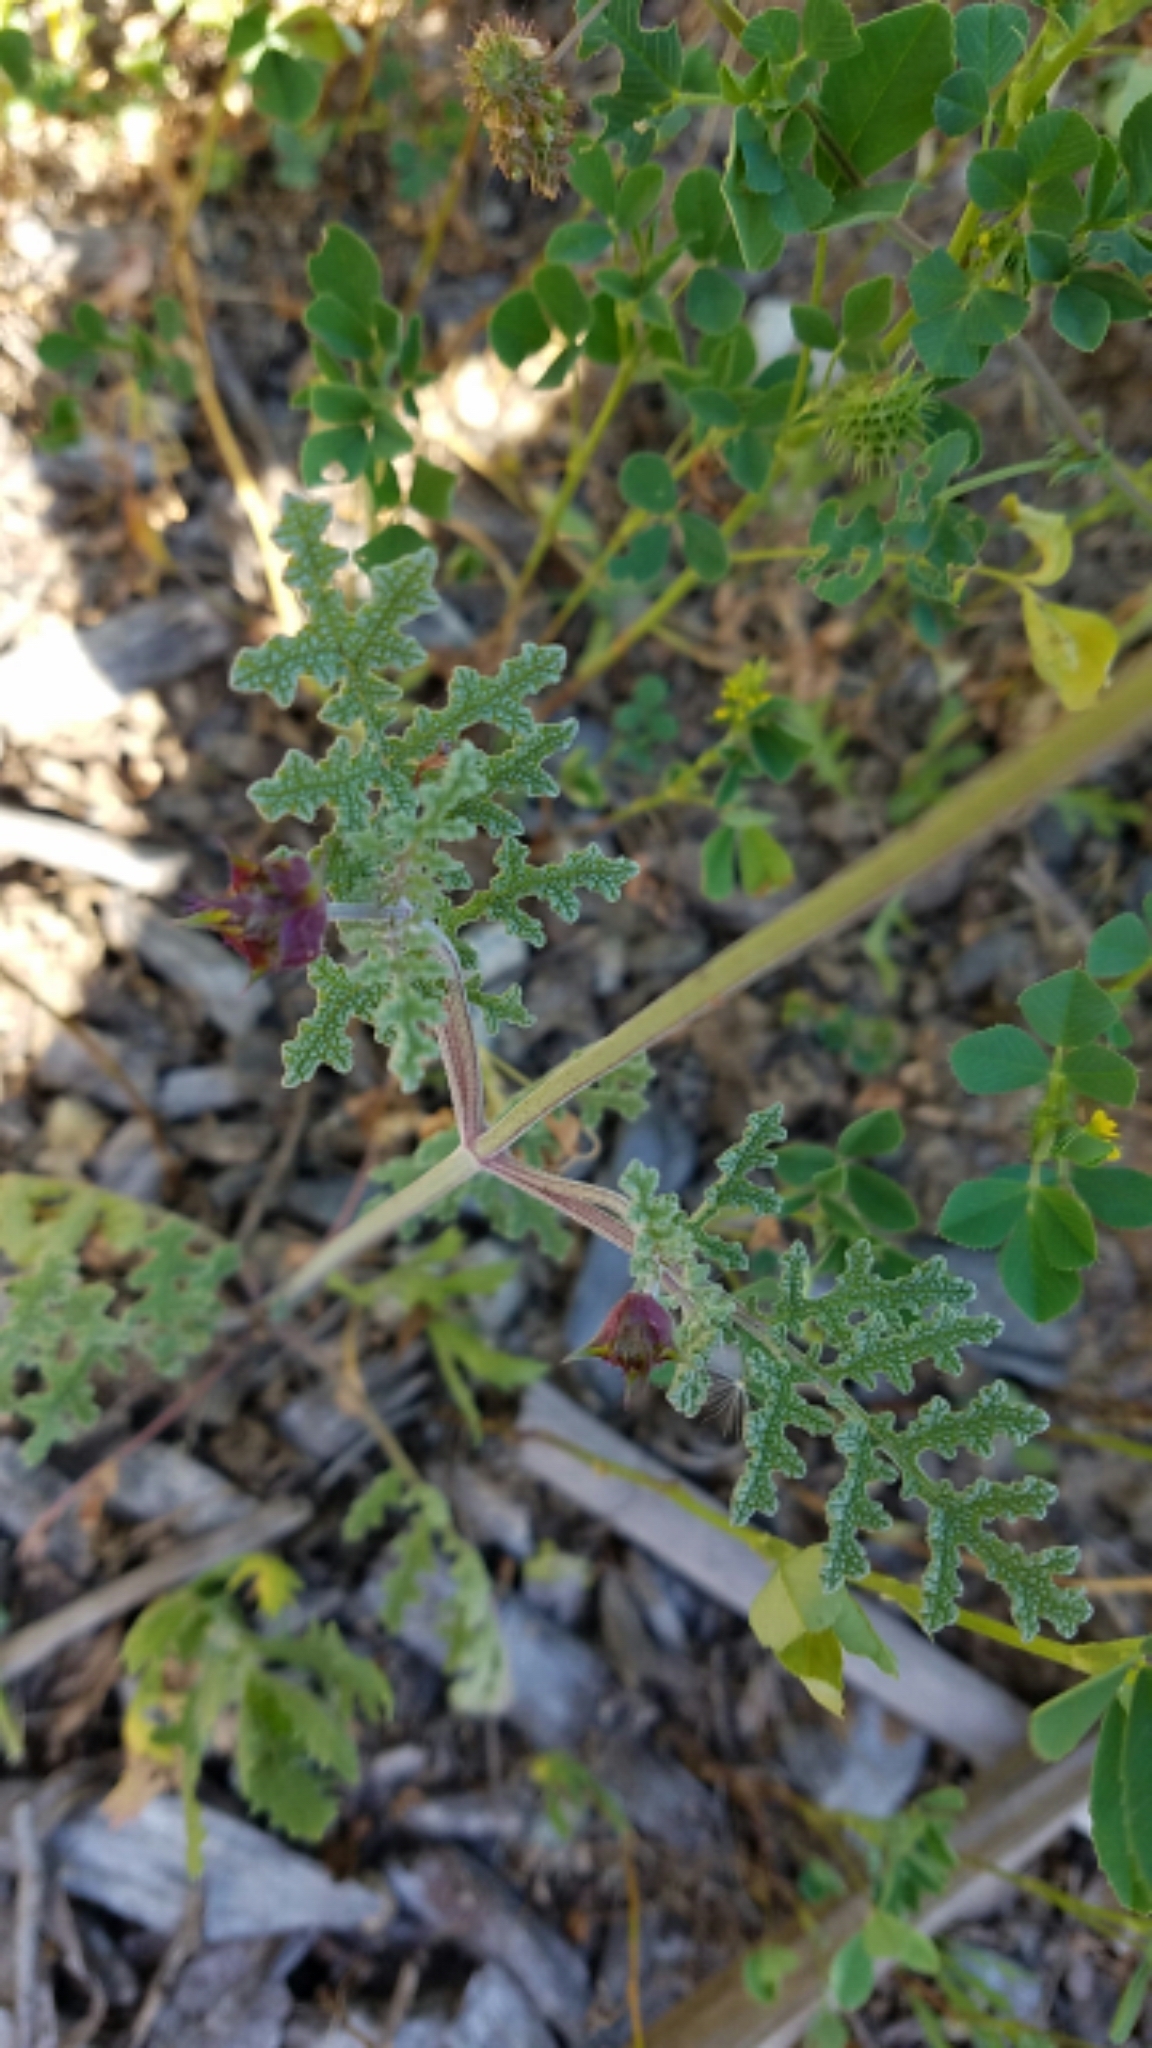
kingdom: Plantae
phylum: Tracheophyta
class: Magnoliopsida
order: Lamiales
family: Lamiaceae
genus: Salvia
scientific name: Salvia columbariae
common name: Chia
